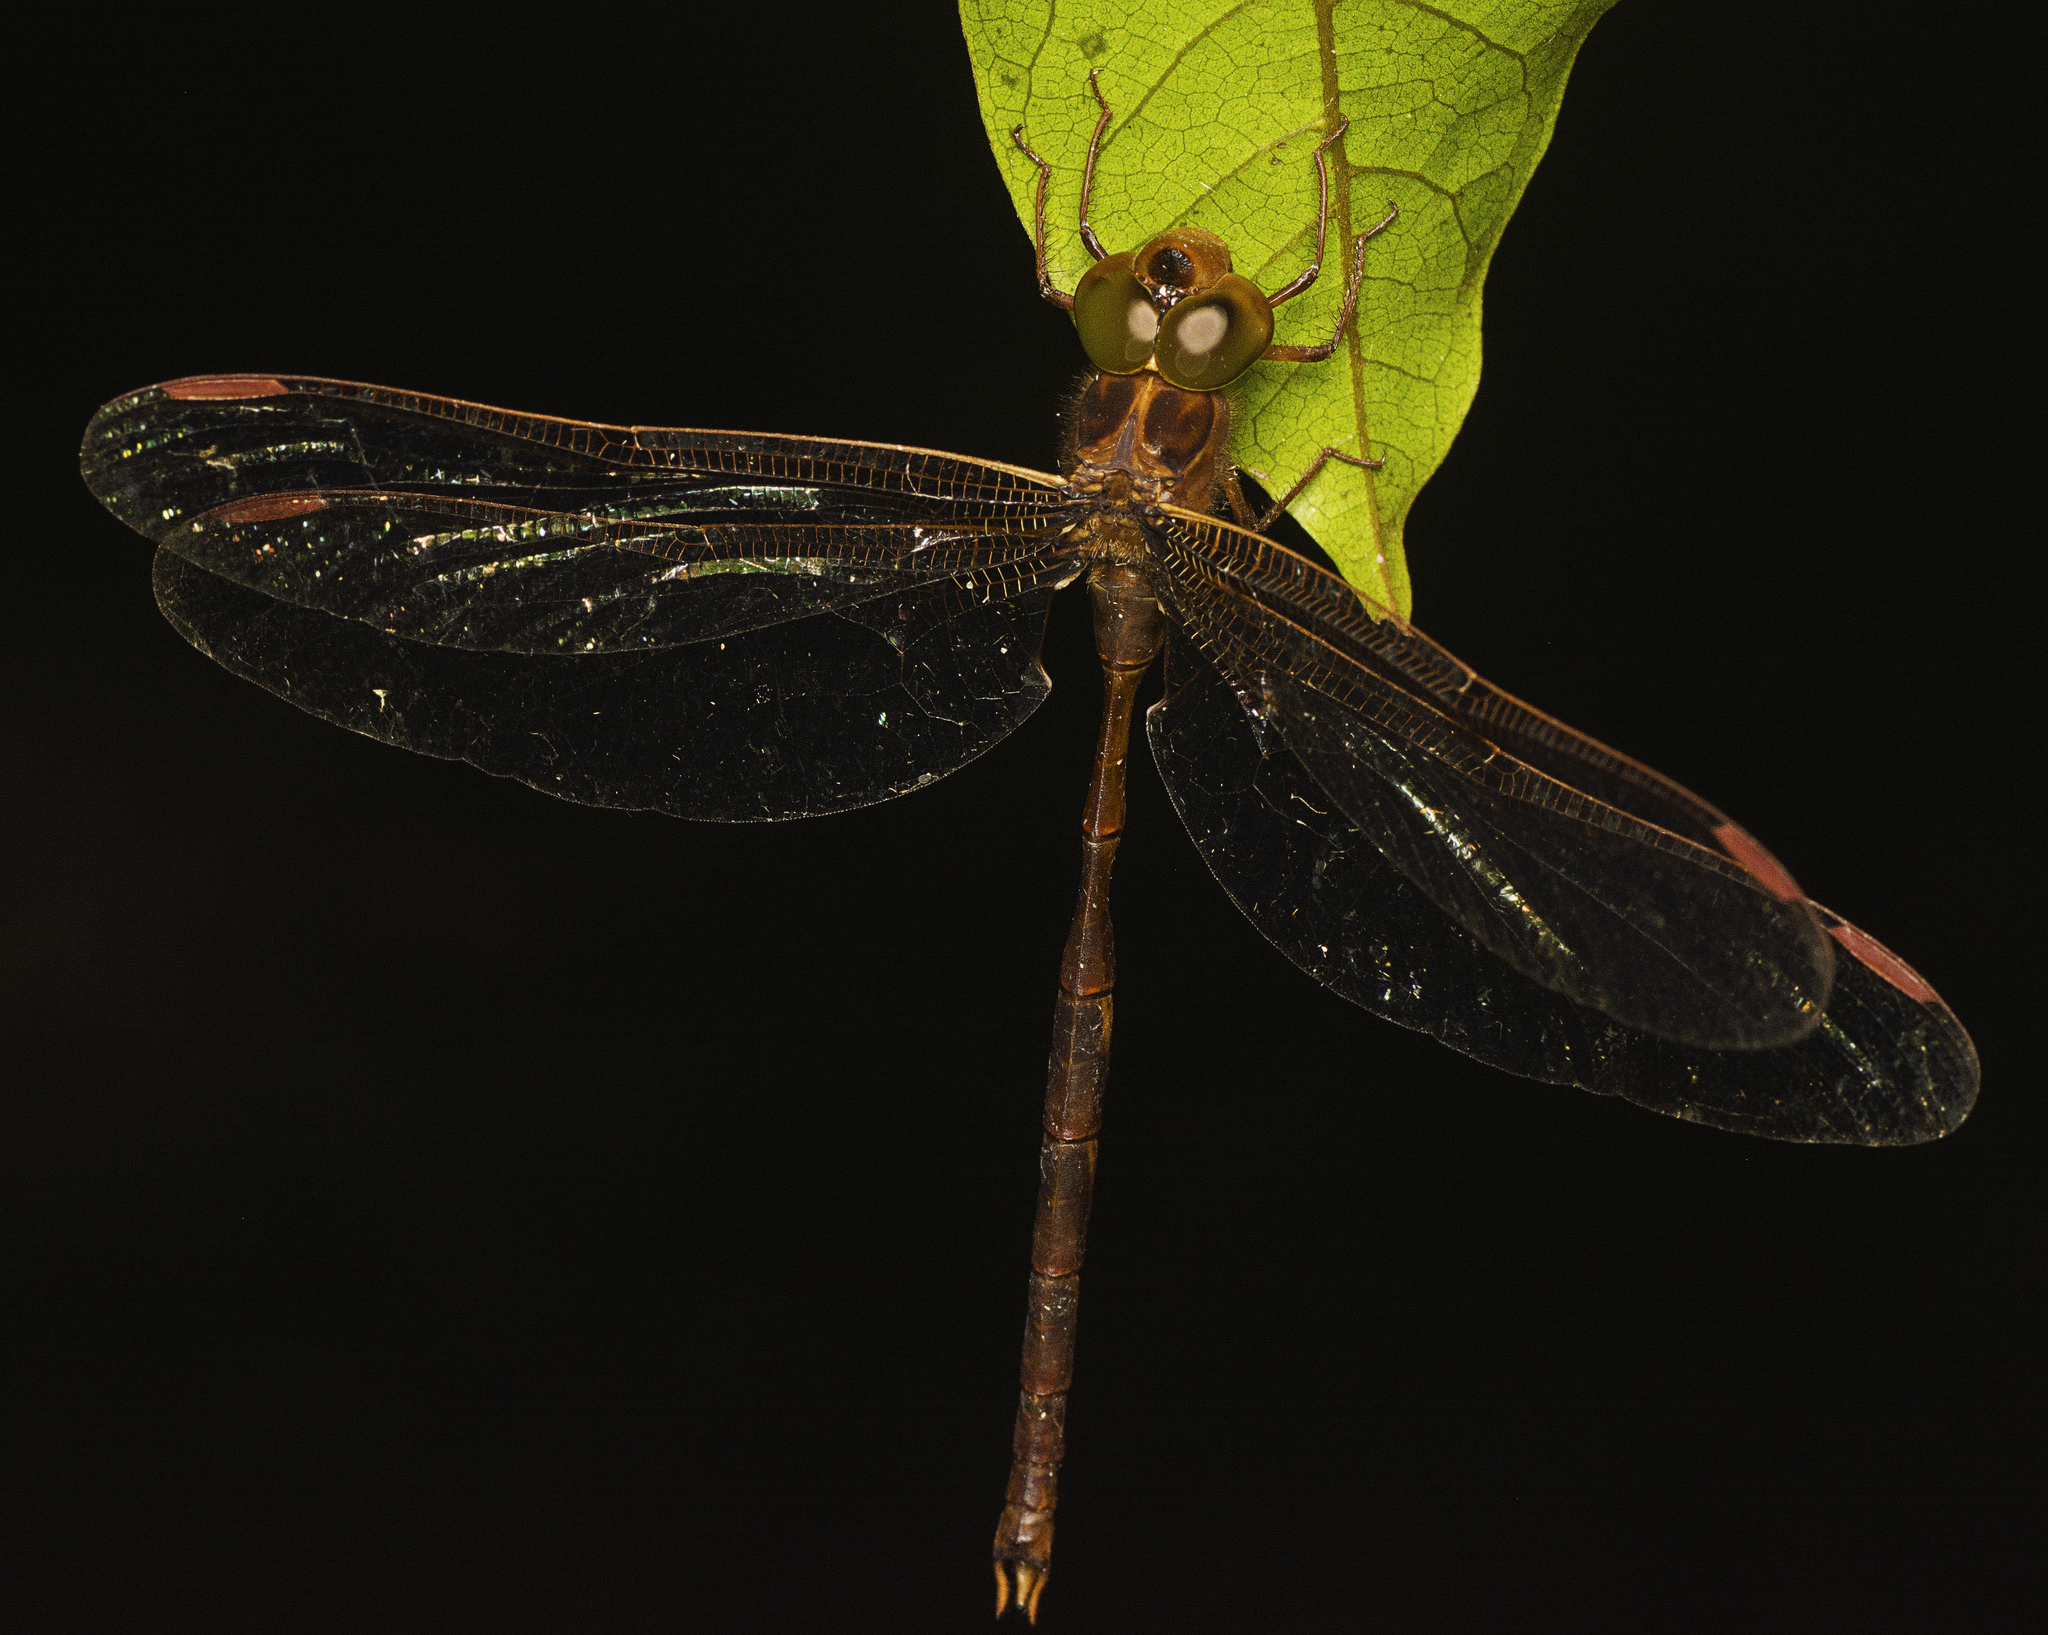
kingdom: Animalia
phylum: Arthropoda
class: Insecta
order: Odonata
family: Aeshnidae
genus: Telephlebia
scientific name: Telephlebia tryoni
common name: Coastal evening darner
